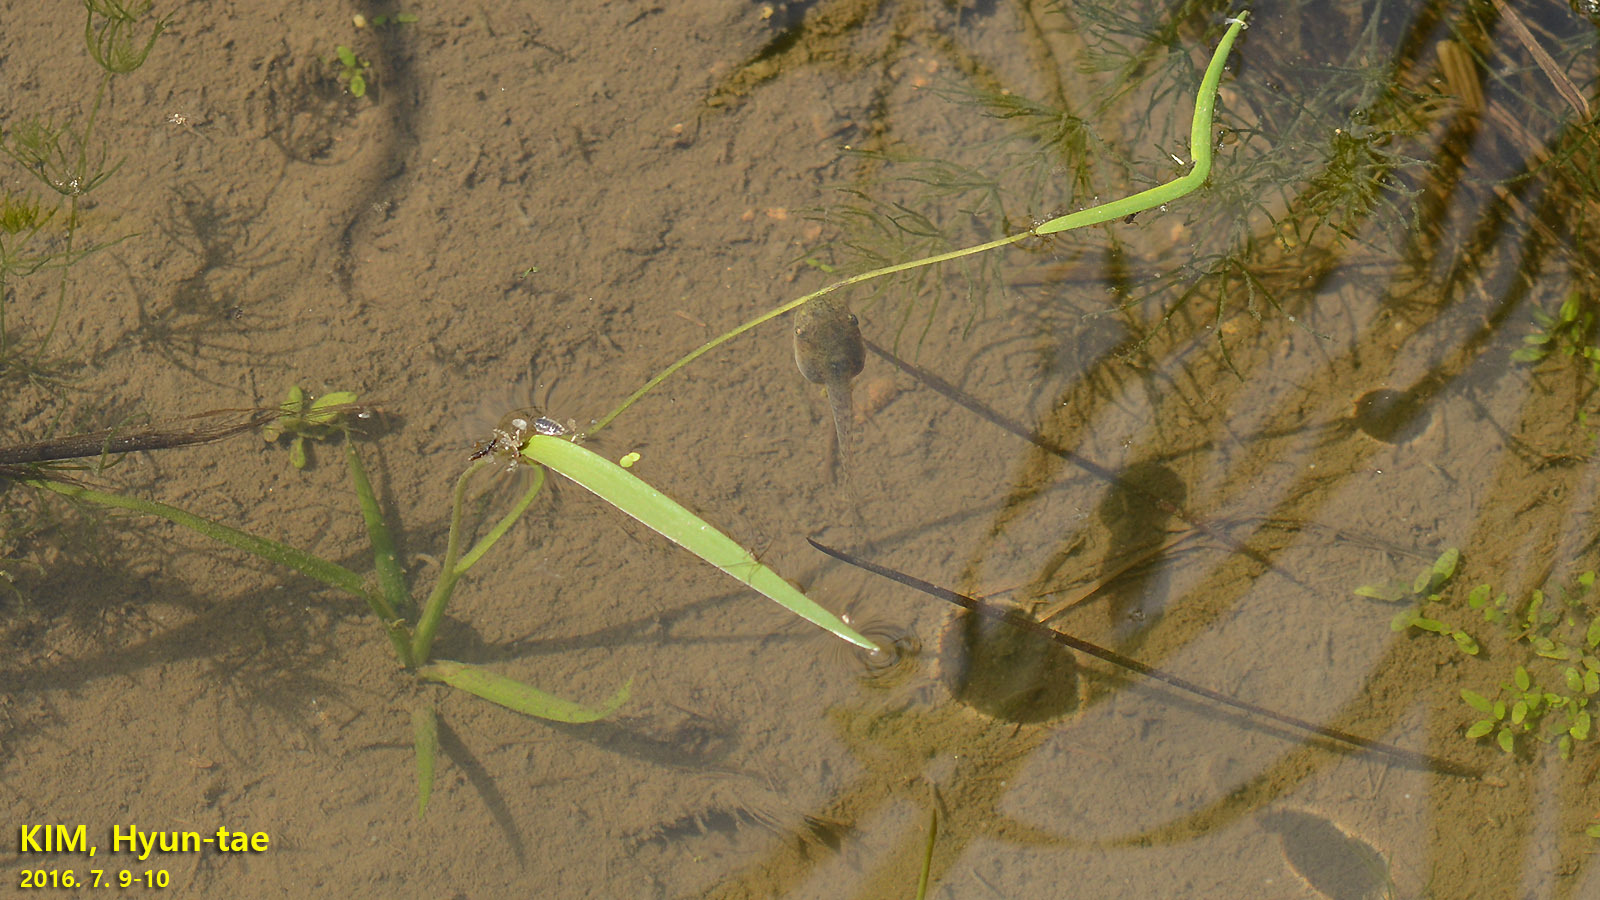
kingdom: Animalia
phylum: Chordata
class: Amphibia
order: Anura
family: Hylidae
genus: Dryophytes
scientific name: Dryophytes japonicus
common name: Japanese treefrog
